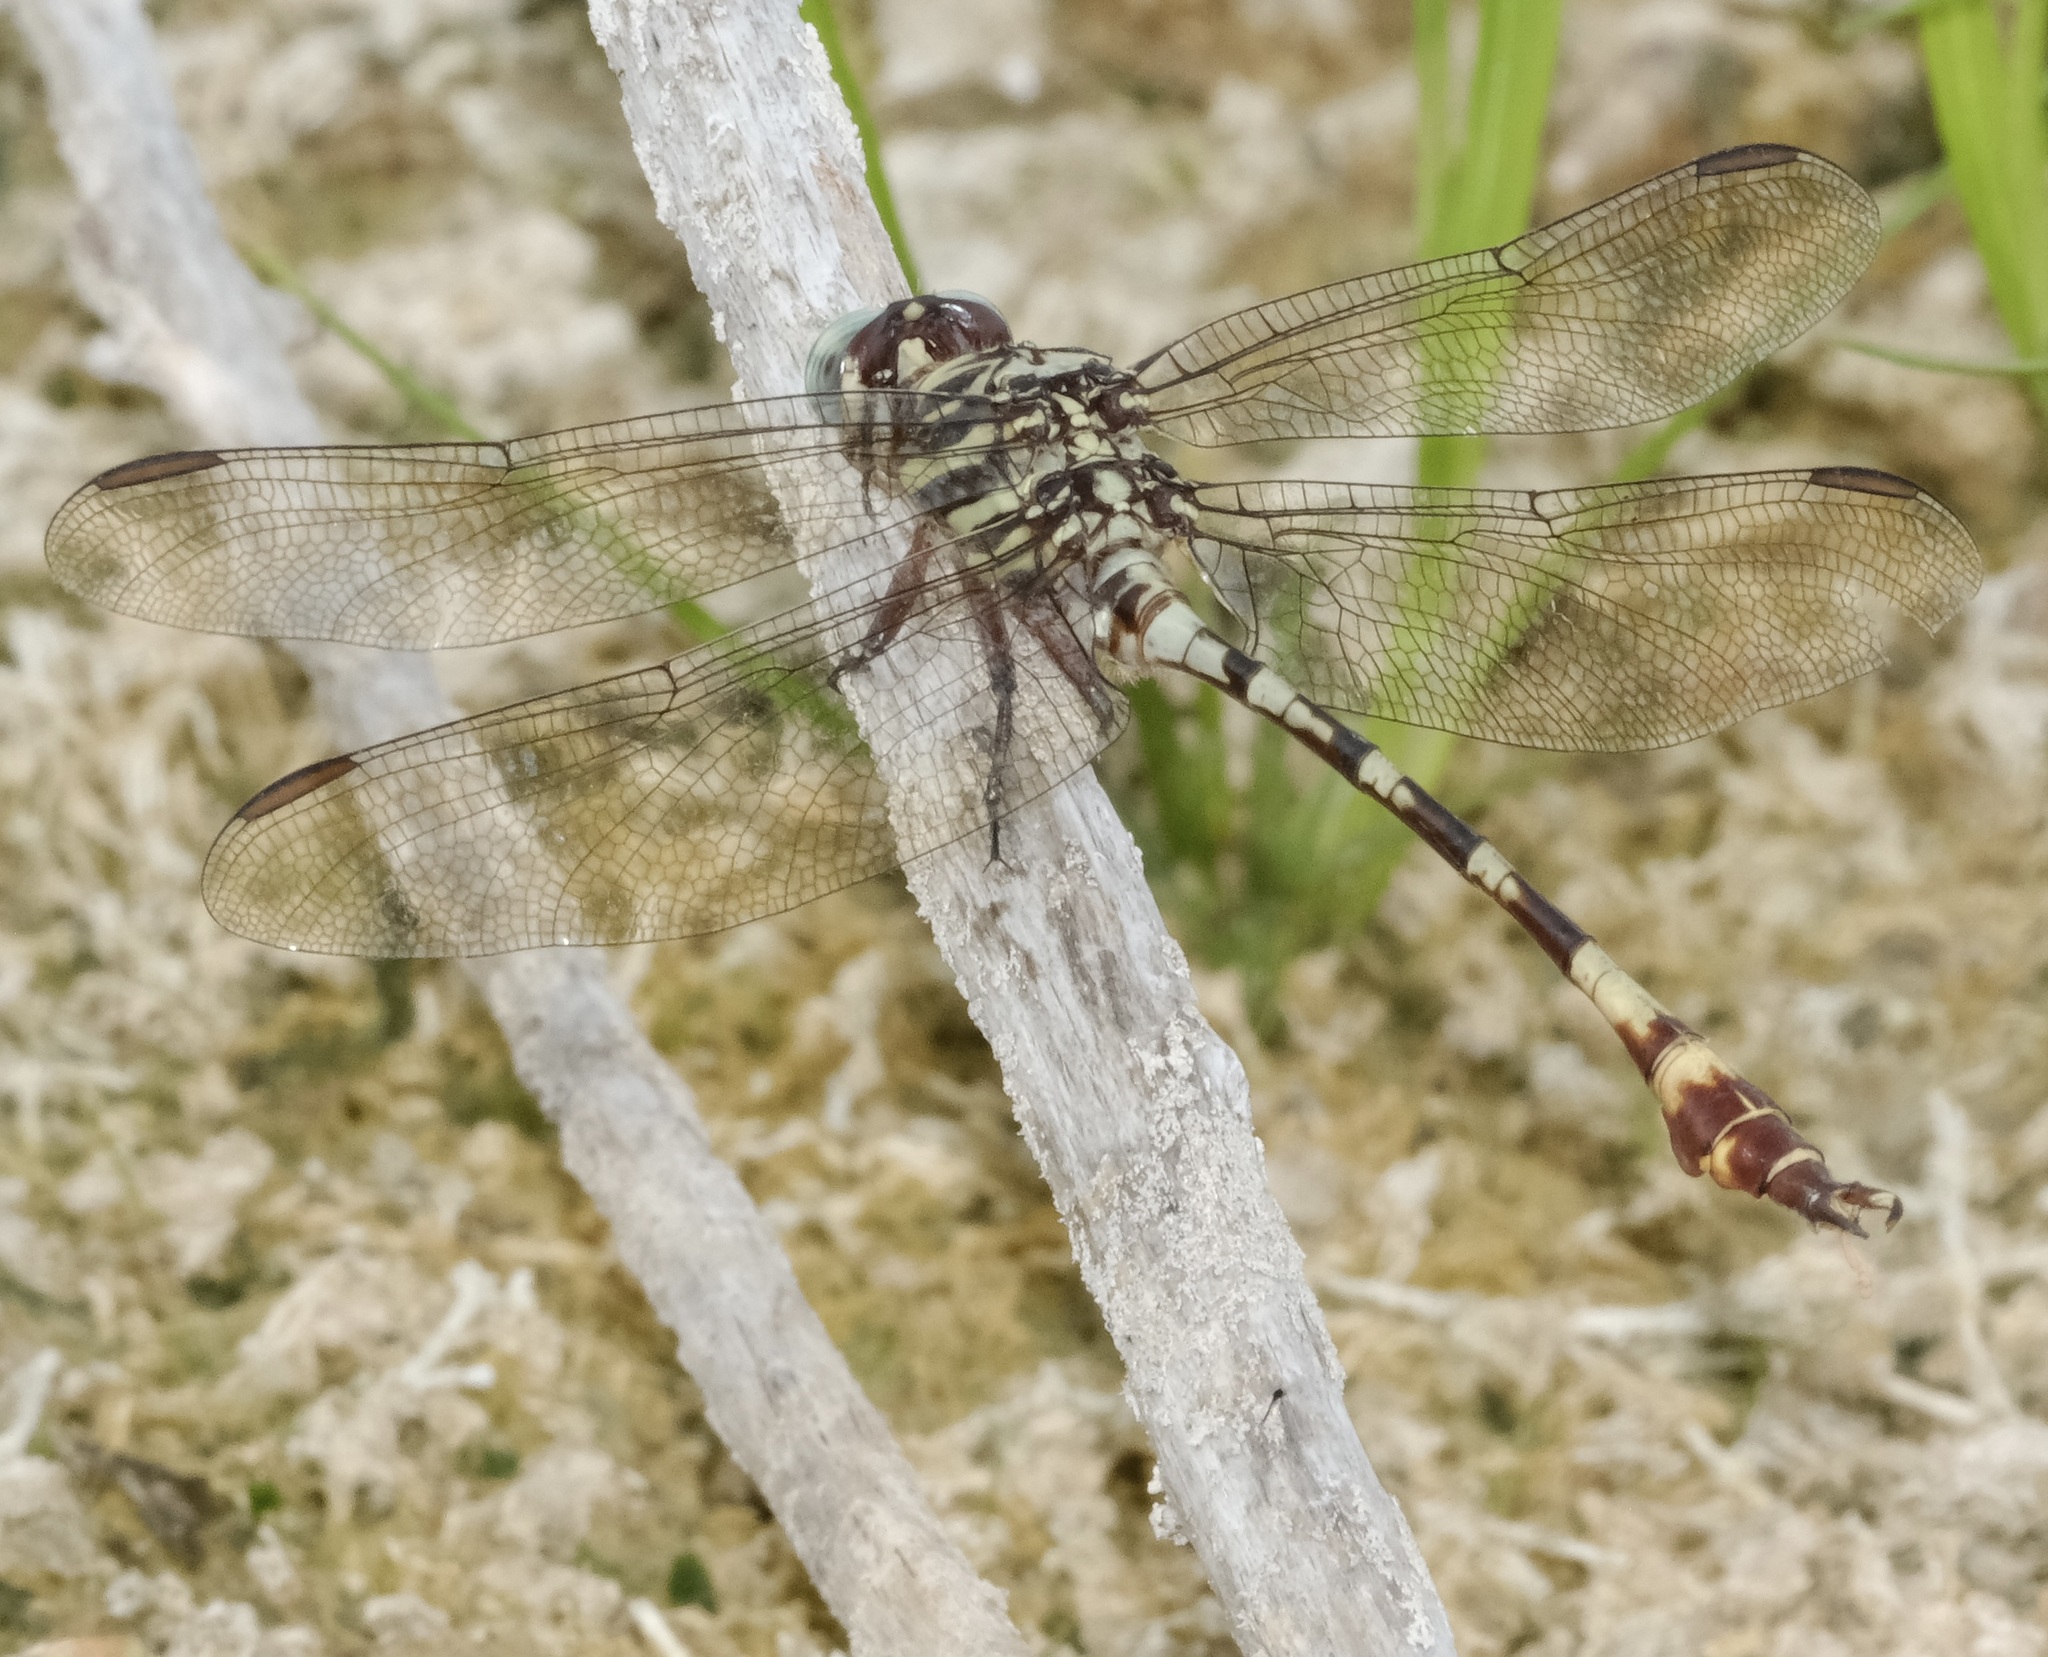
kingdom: Animalia
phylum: Arthropoda
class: Insecta
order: Odonata
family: Gomphidae
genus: Aphylla
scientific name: Aphylla angustifolia
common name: Broad-striped forceptail
